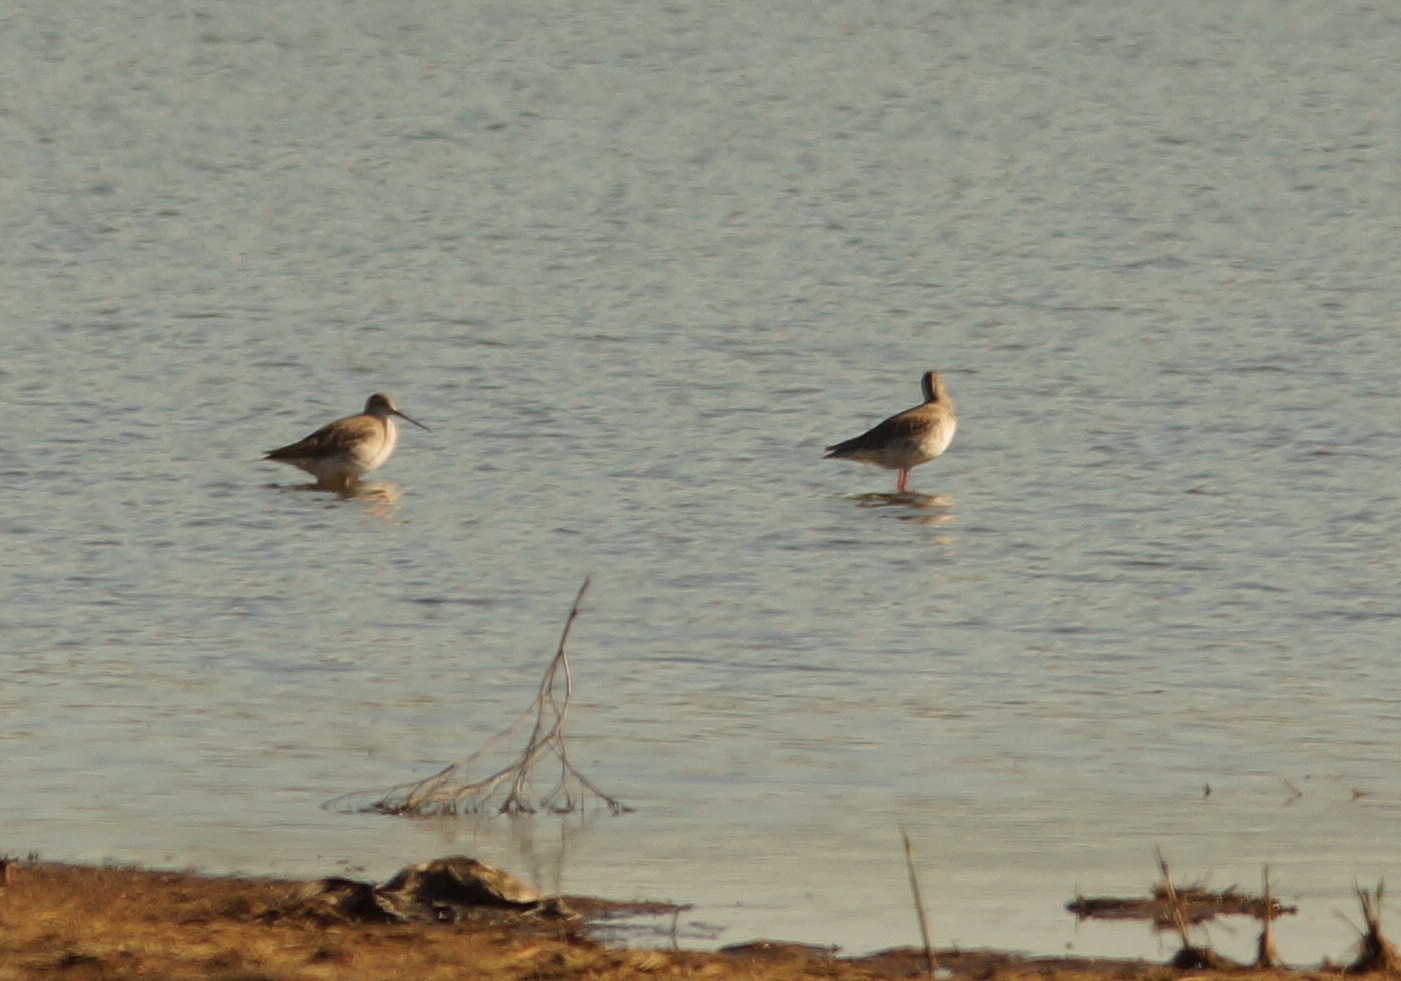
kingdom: Animalia
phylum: Chordata
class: Aves
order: Charadriiformes
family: Scolopacidae
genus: Tringa
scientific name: Tringa erythropus
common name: Spotted redshank
